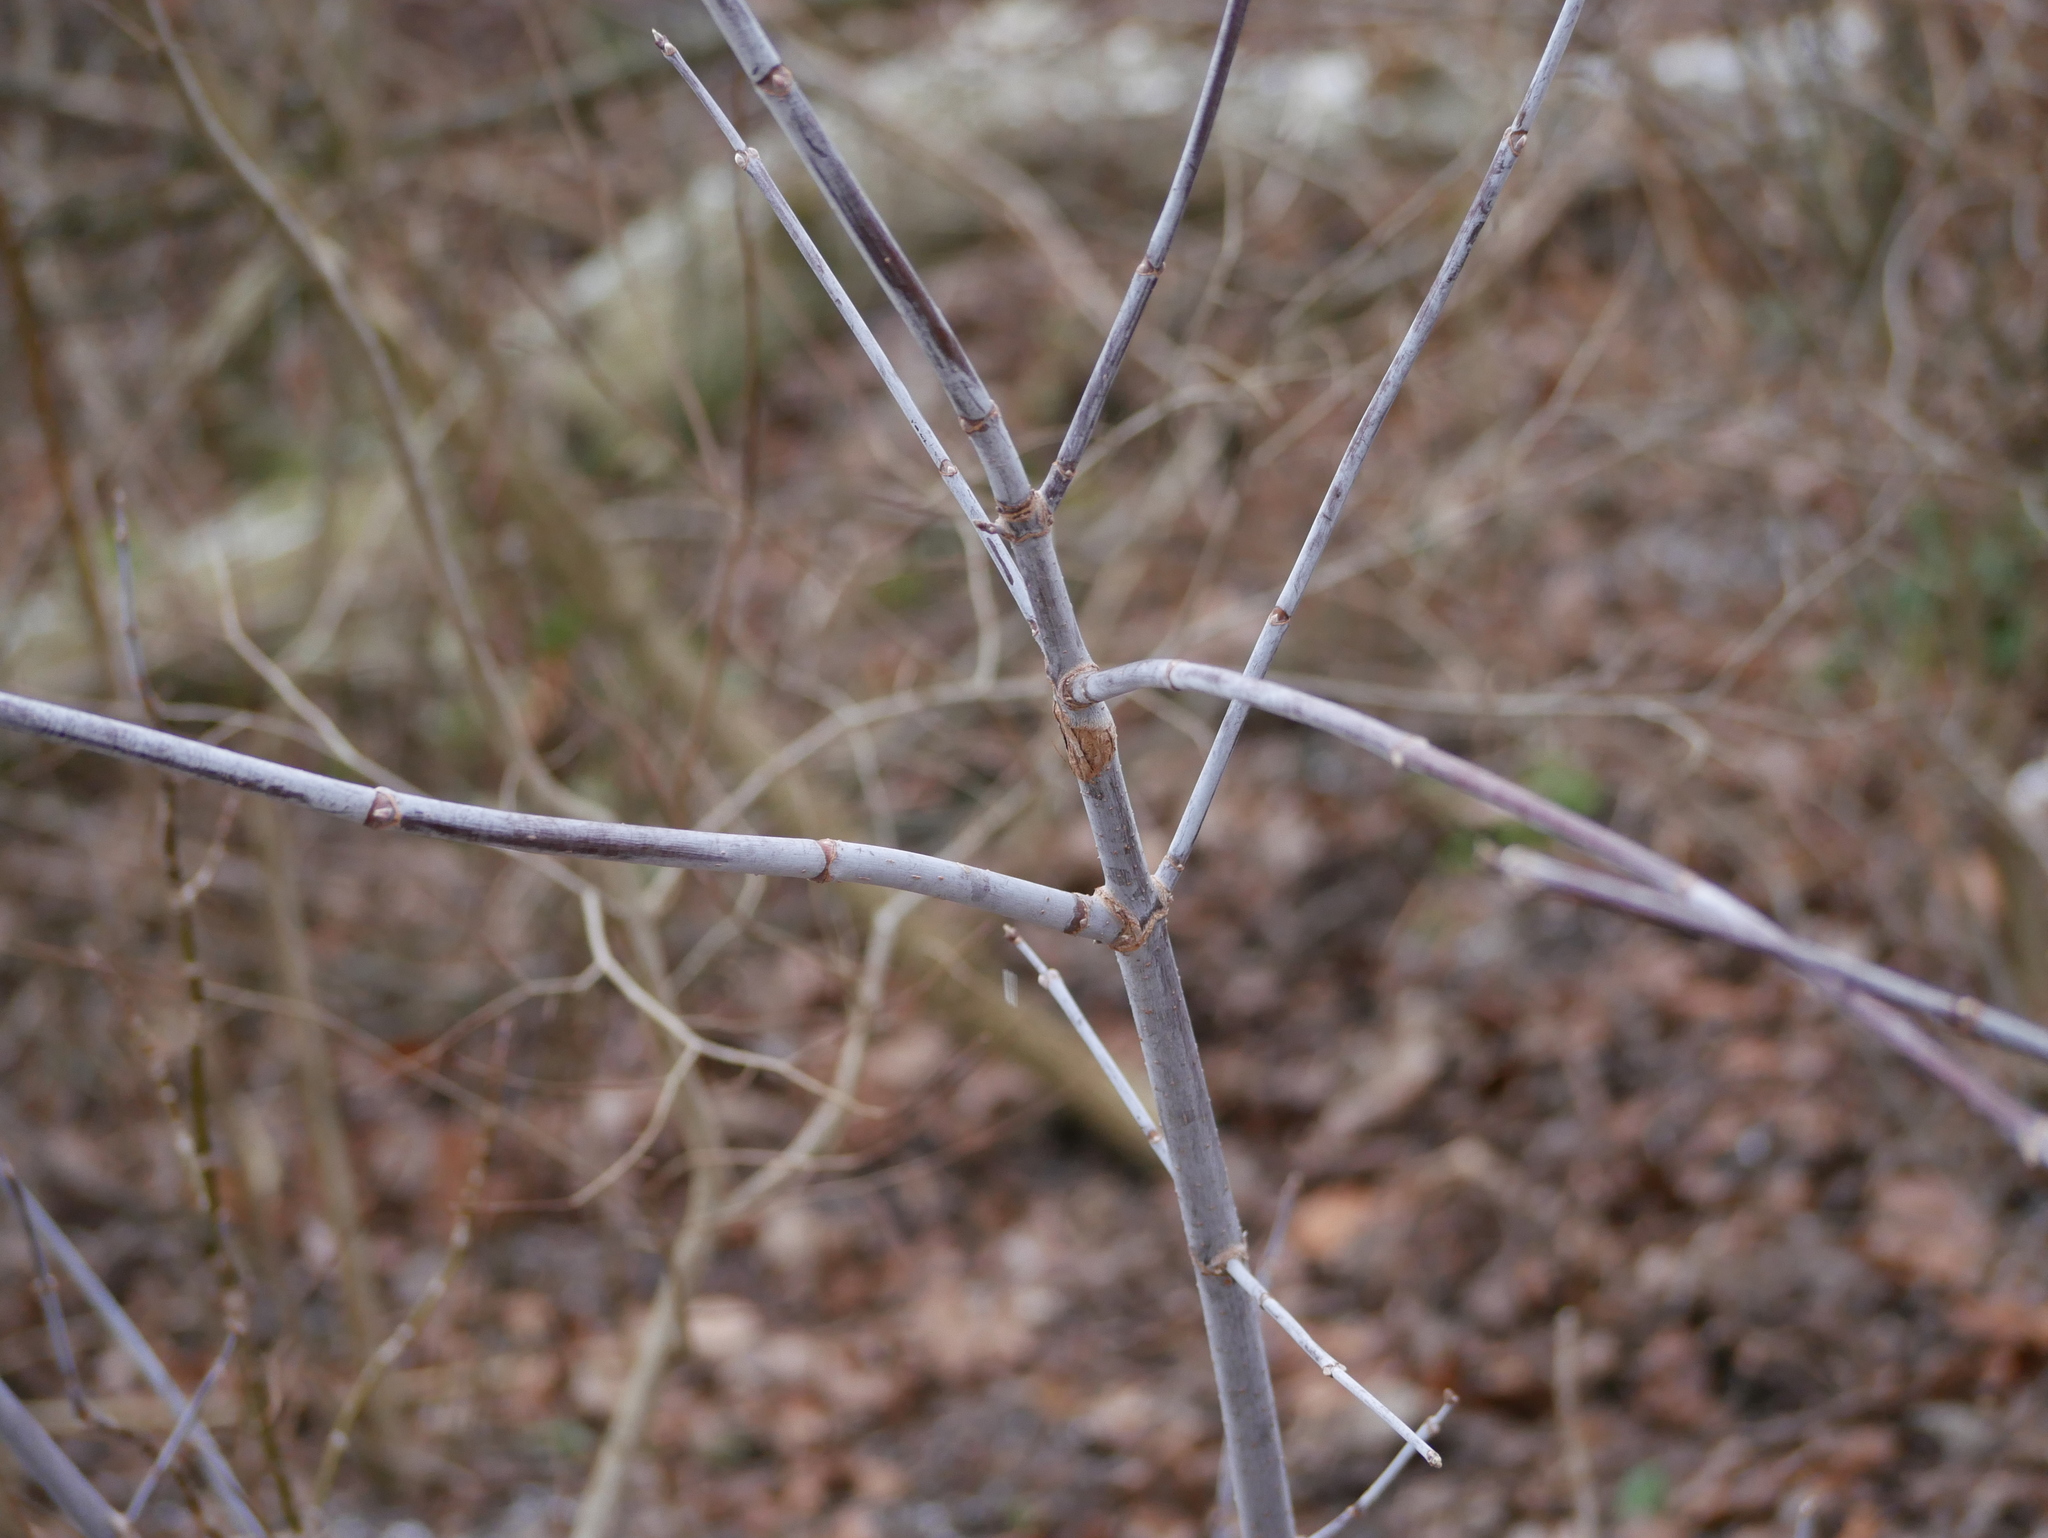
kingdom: Plantae
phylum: Tracheophyta
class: Magnoliopsida
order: Sapindales
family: Sapindaceae
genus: Acer
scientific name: Acer negundo
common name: Ashleaf maple
